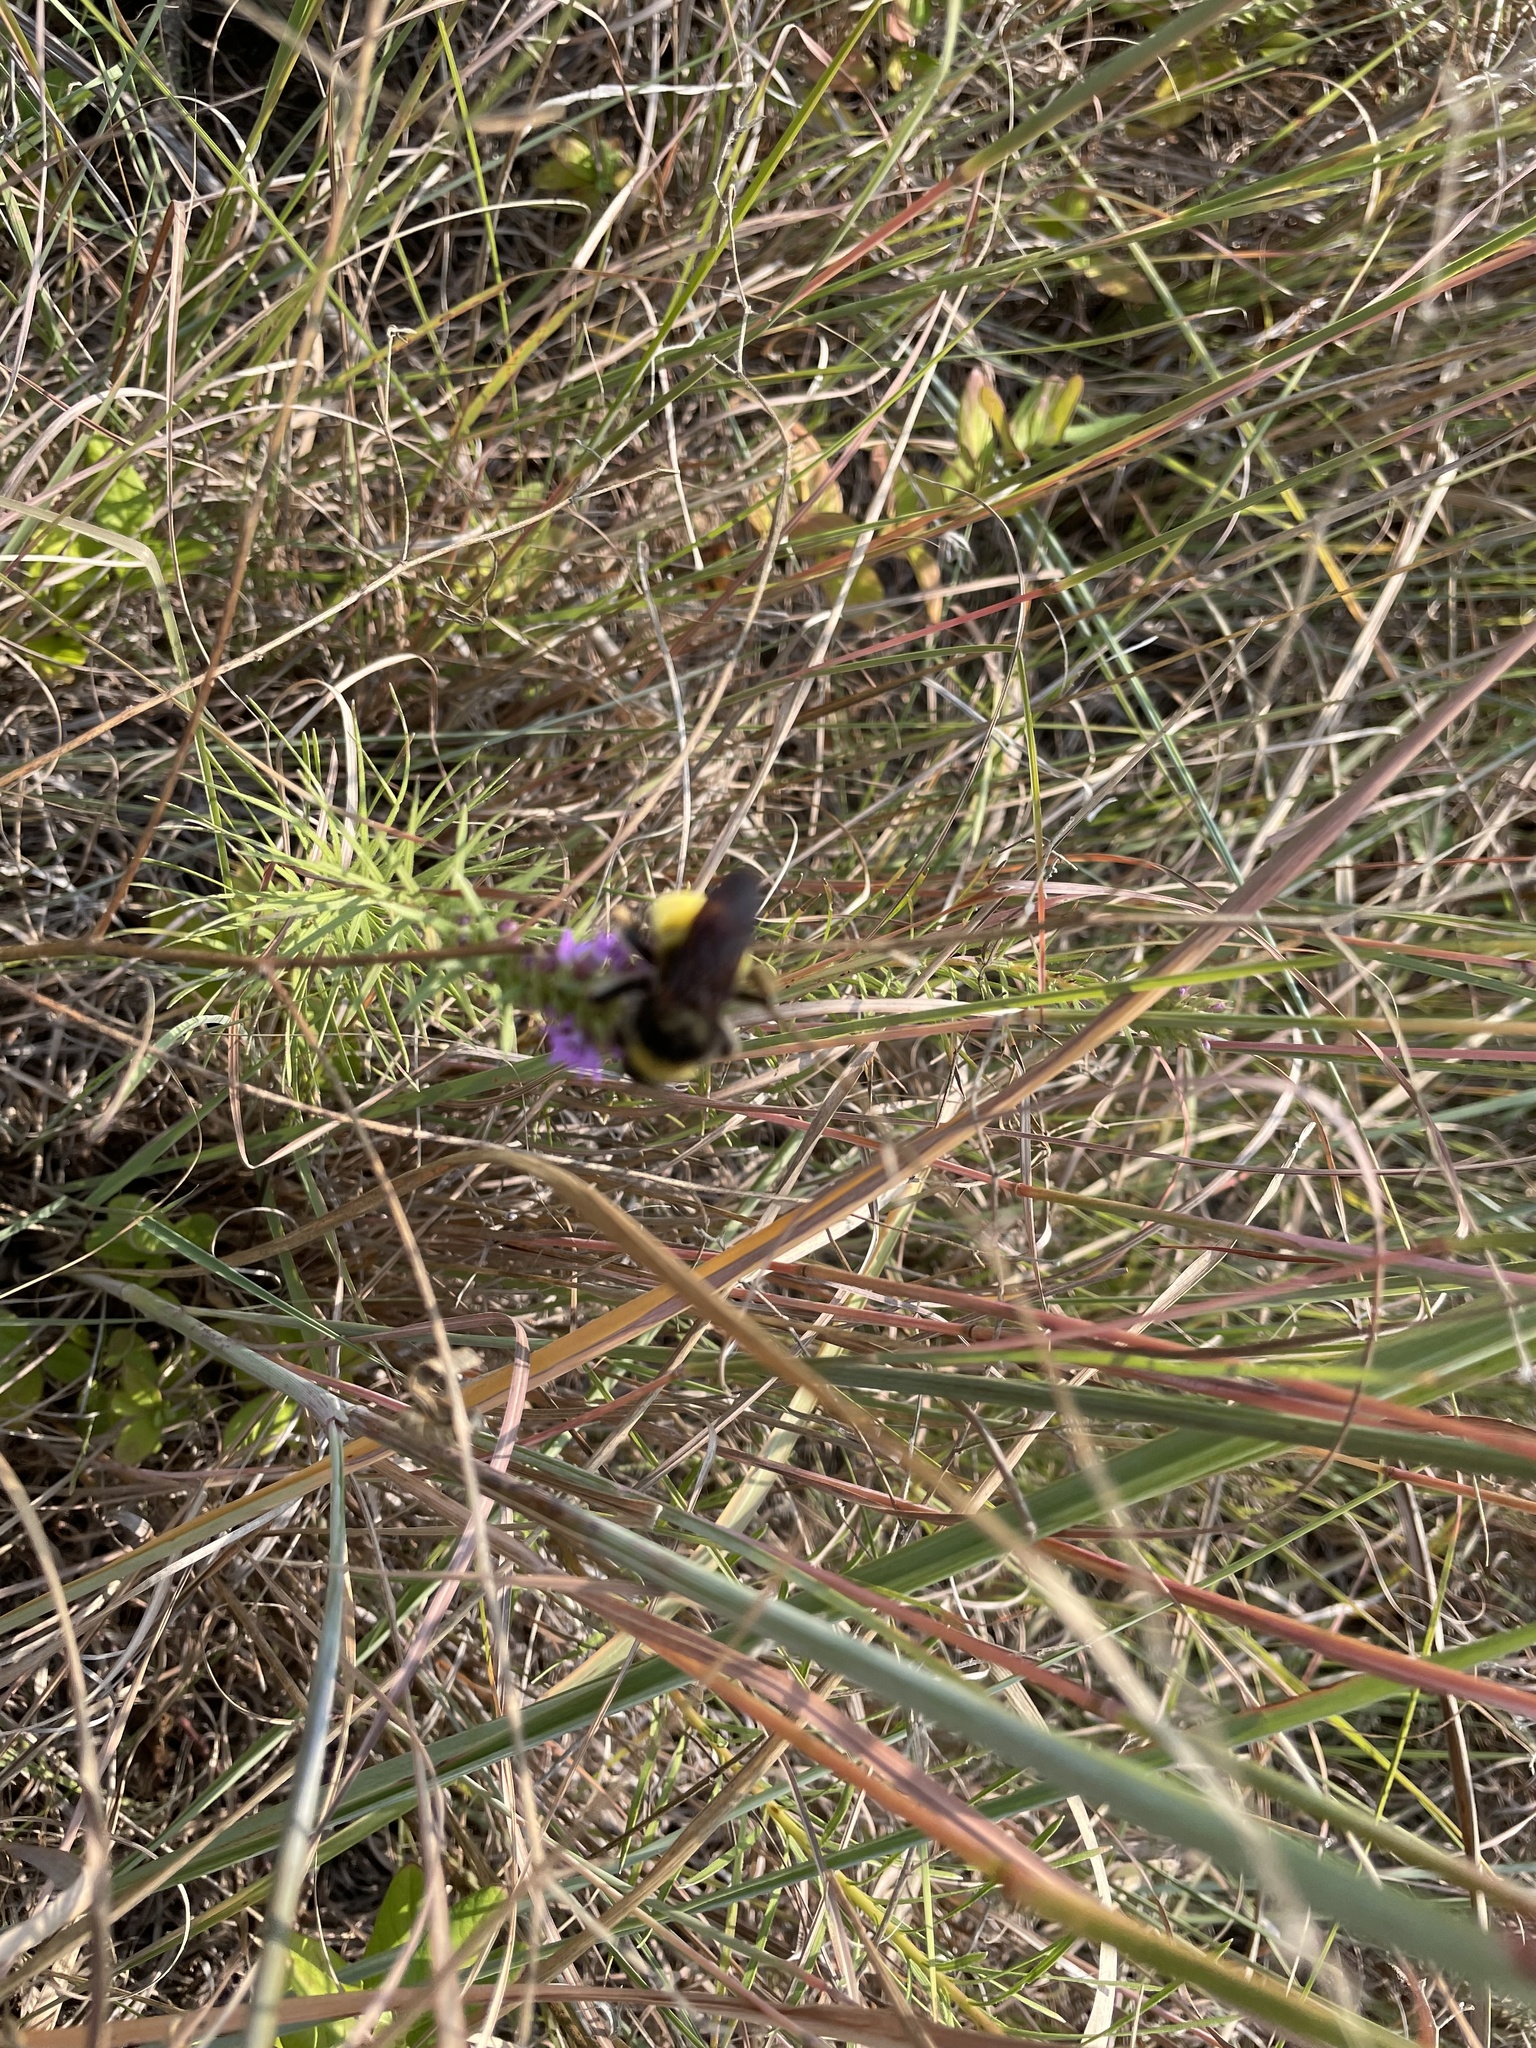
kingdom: Animalia
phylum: Arthropoda
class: Insecta
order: Hymenoptera
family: Apidae
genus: Bombus
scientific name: Bombus pensylvanicus
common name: Bumble bee
